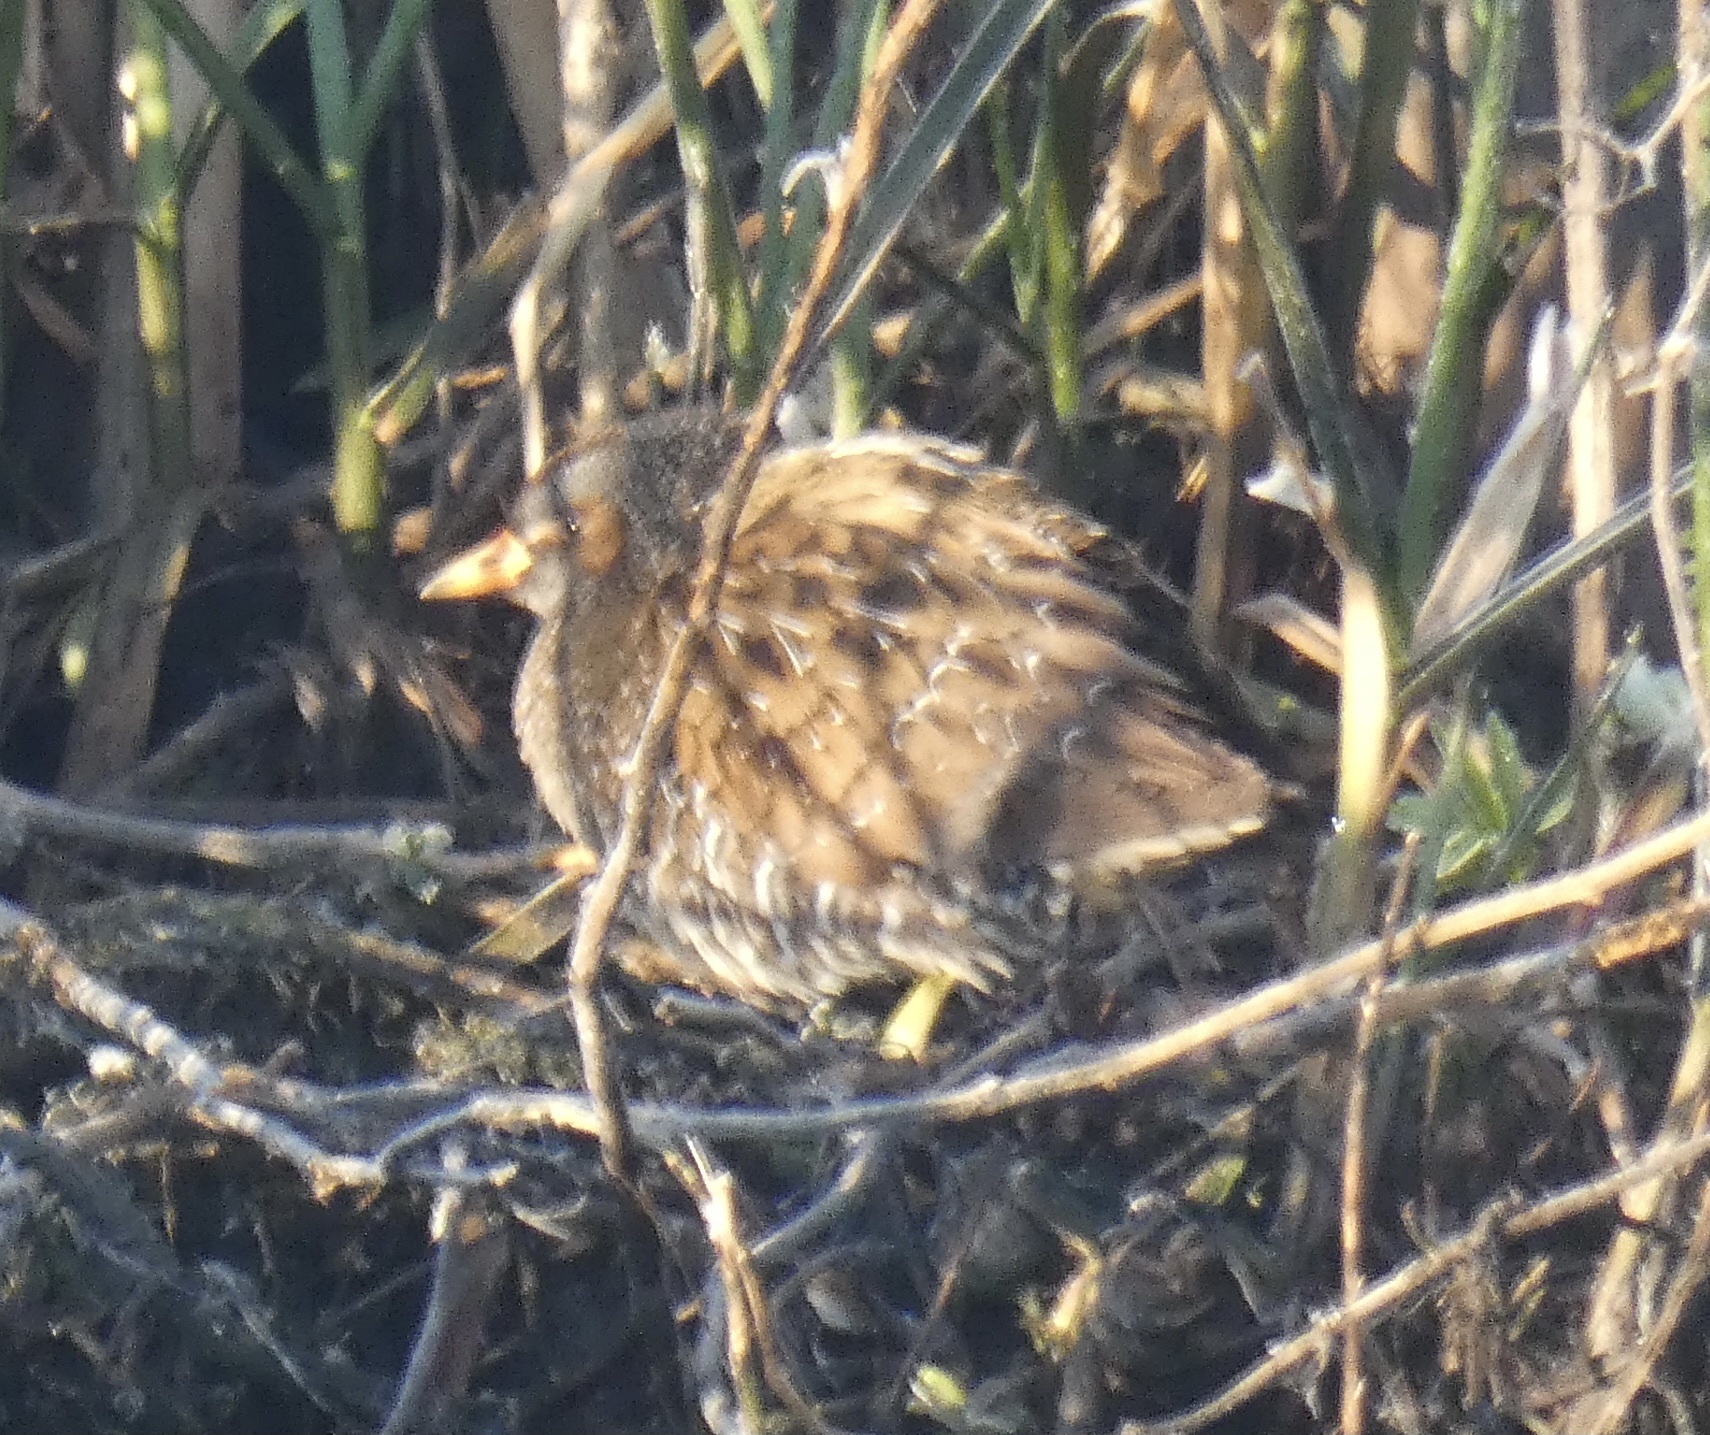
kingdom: Animalia
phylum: Chordata
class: Aves
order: Gruiformes
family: Rallidae
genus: Porzana
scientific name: Porzana porzana
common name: Spotted crake
